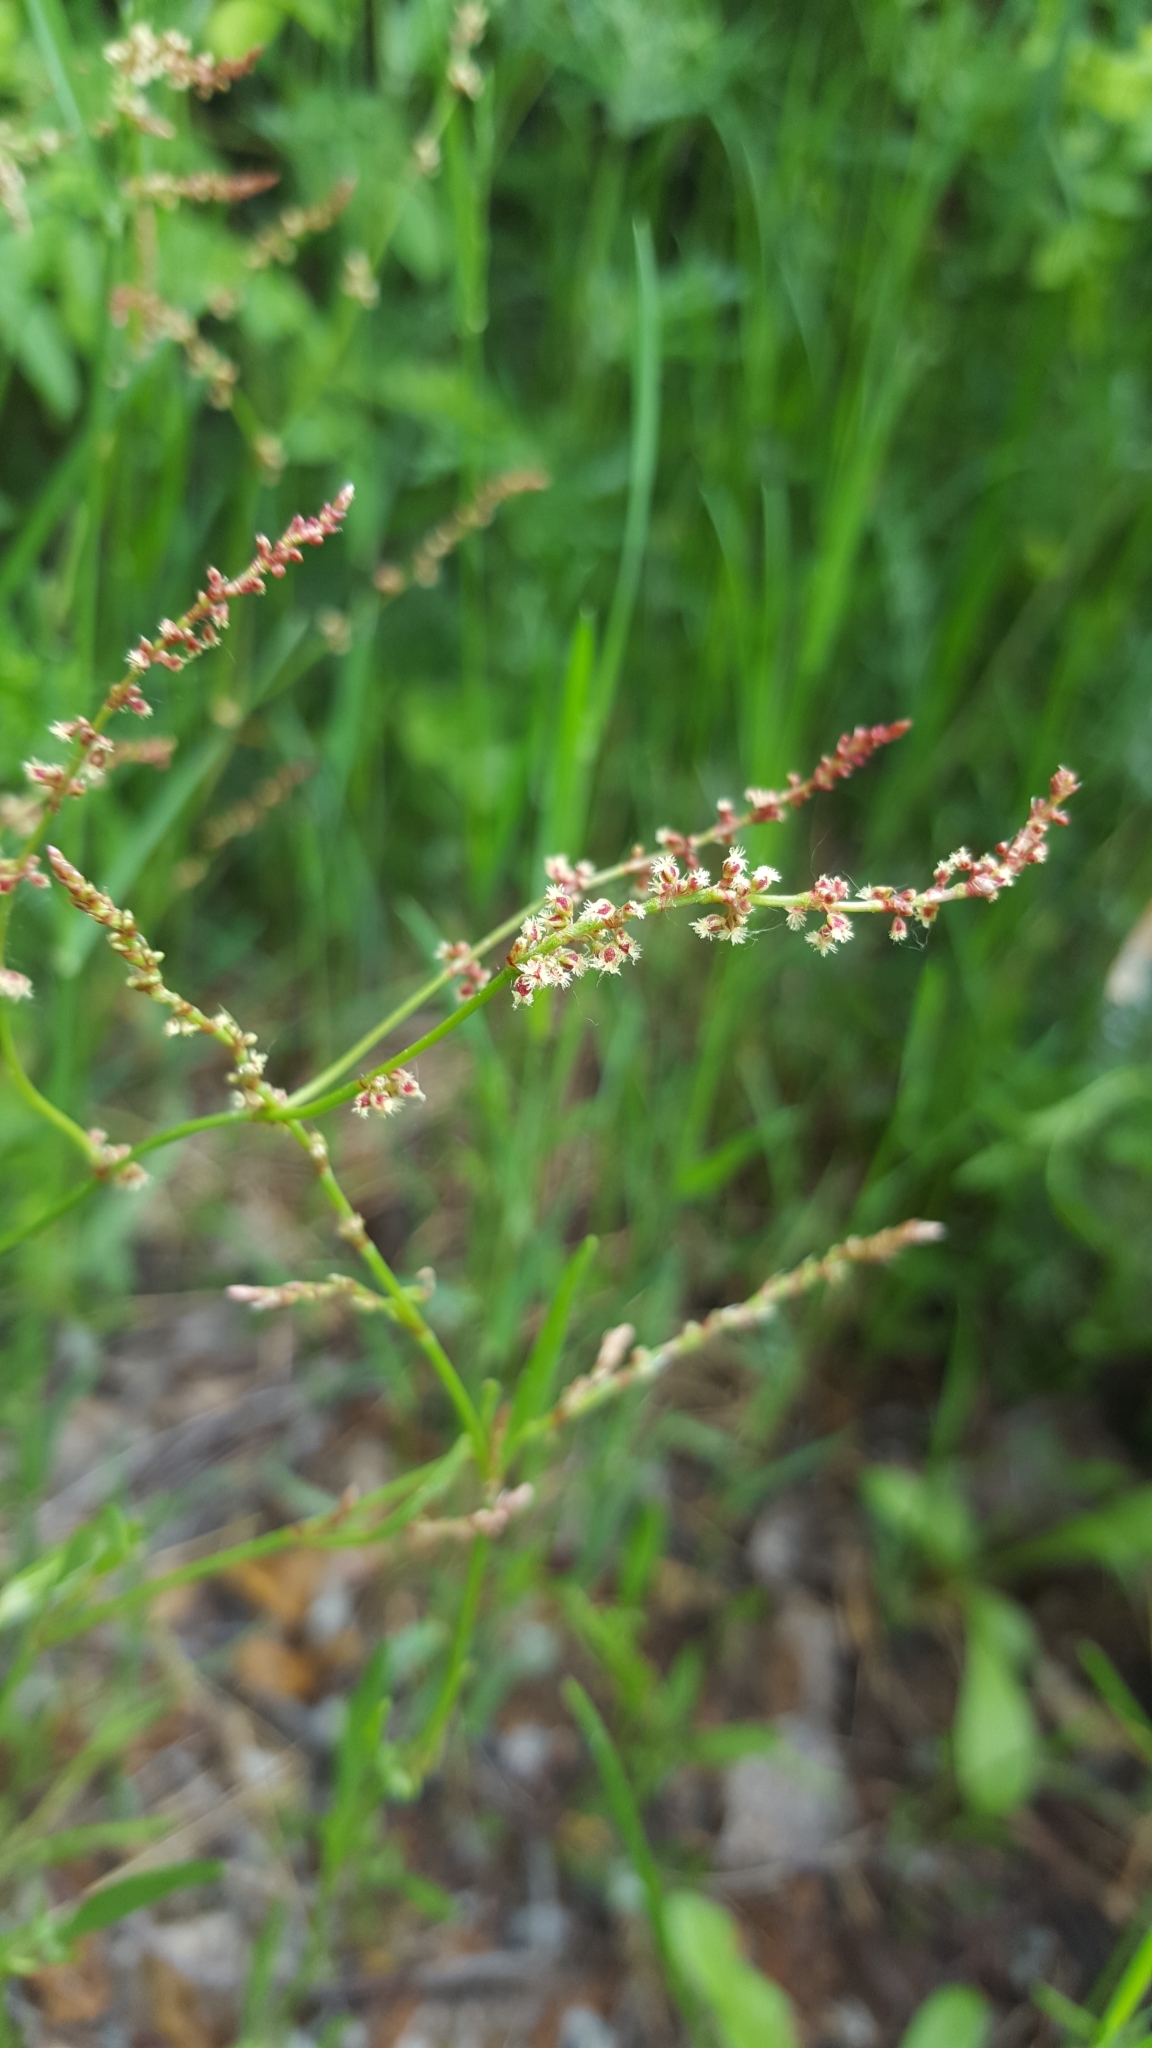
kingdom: Plantae
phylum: Tracheophyta
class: Magnoliopsida
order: Caryophyllales
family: Polygonaceae
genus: Rumex
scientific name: Rumex acetosella
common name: Common sheep sorrel
